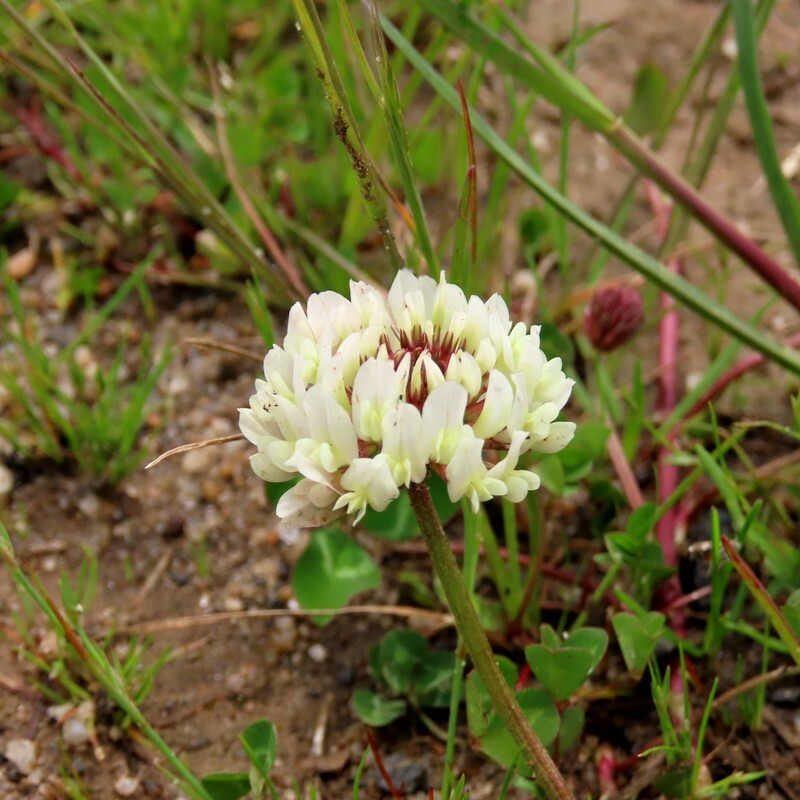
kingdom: Plantae
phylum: Tracheophyta
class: Magnoliopsida
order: Fabales
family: Fabaceae
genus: Trifolium
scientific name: Trifolium repens
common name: White clover
